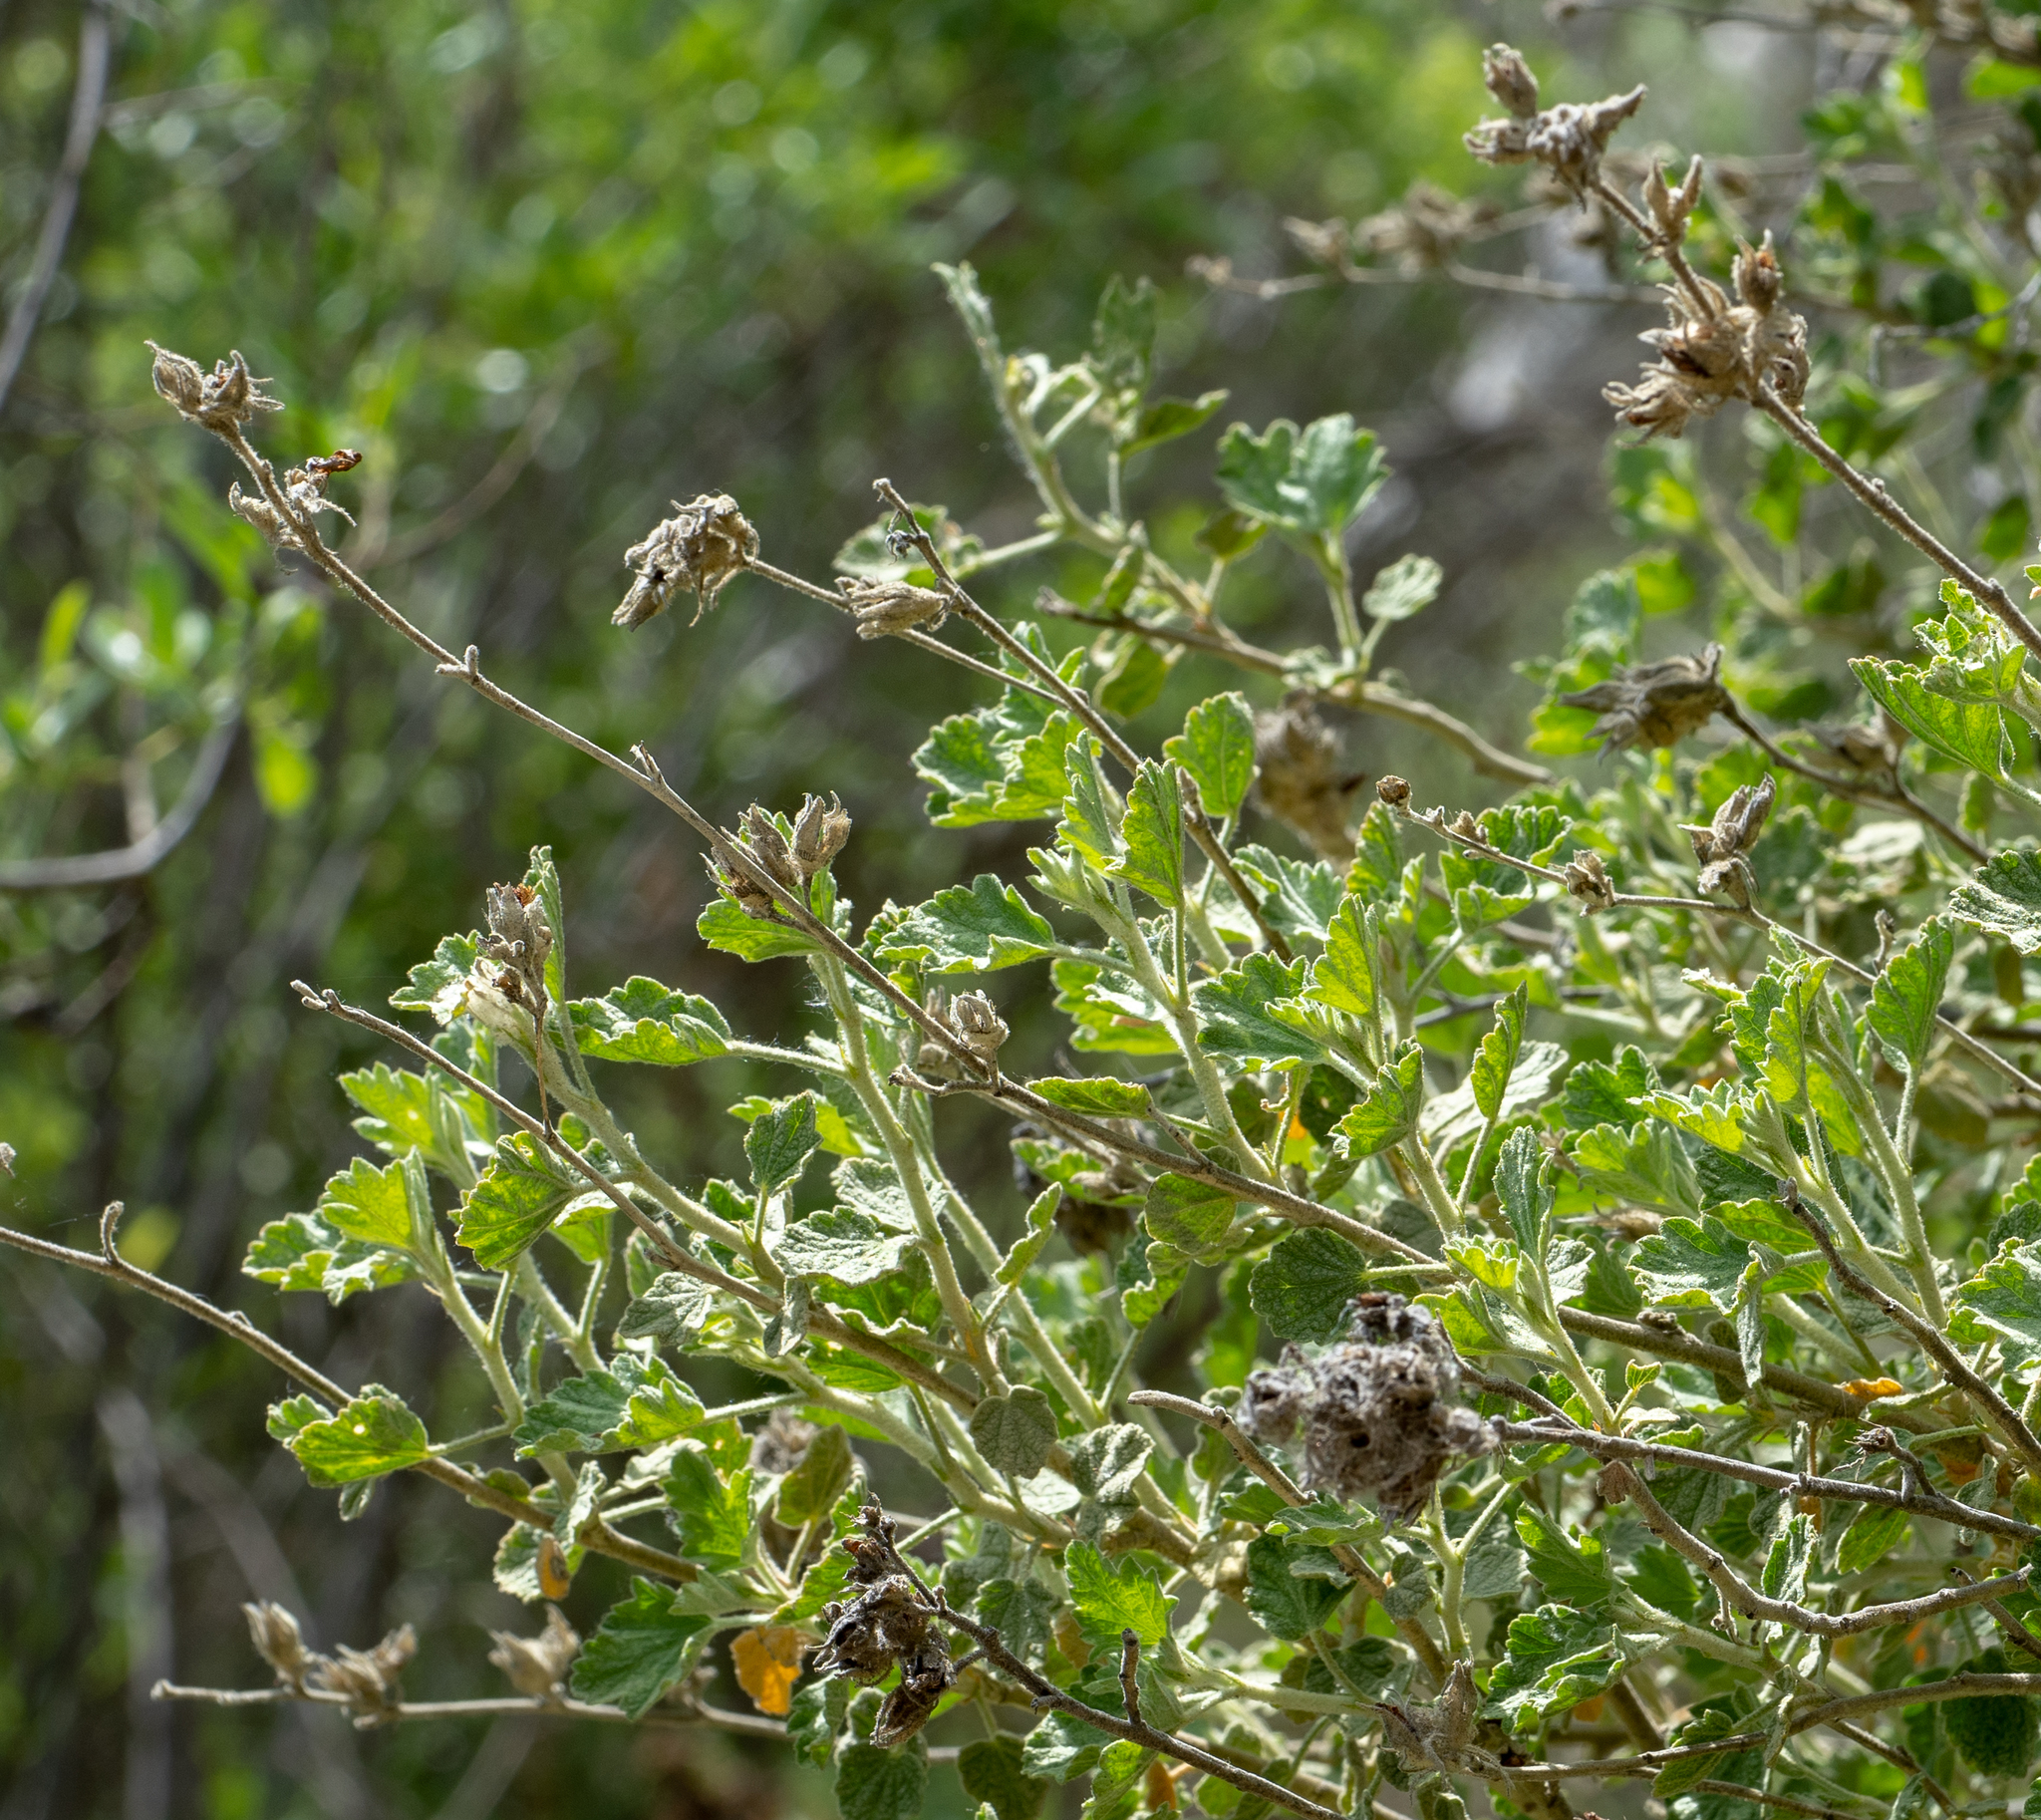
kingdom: Plantae
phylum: Tracheophyta
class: Magnoliopsida
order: Malvales
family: Malvaceae
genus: Malacothamnus
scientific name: Malacothamnus marrubioides
